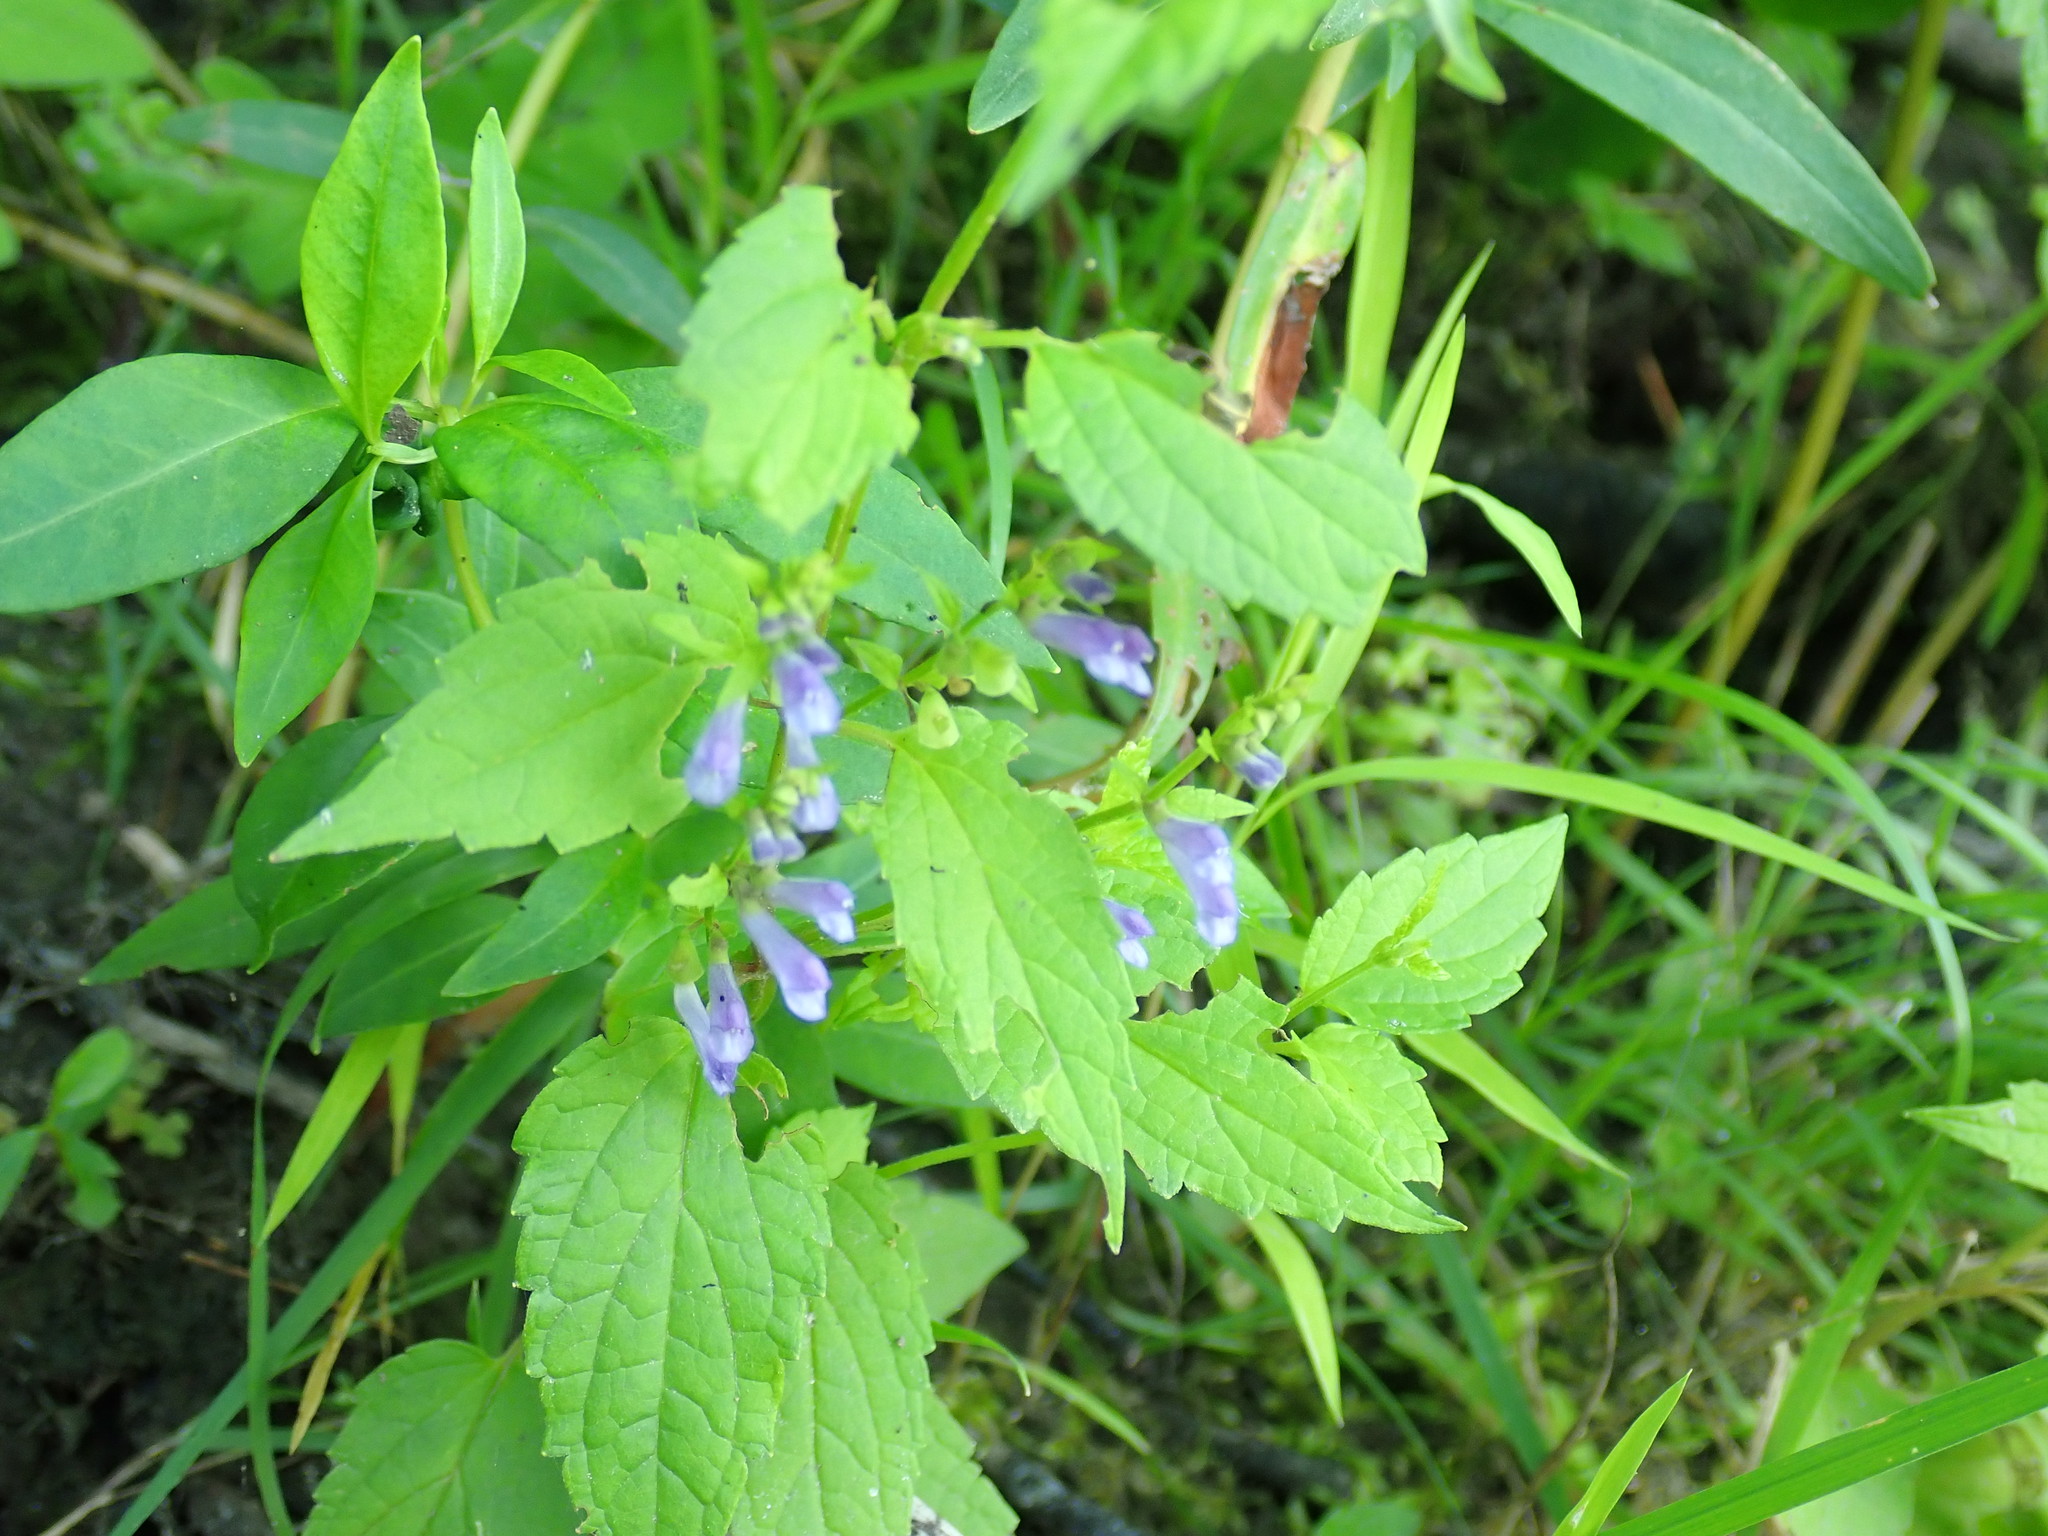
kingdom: Plantae
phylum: Tracheophyta
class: Magnoliopsida
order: Lamiales
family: Lamiaceae
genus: Scutellaria
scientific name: Scutellaria lateriflora
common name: Blue skullcap
